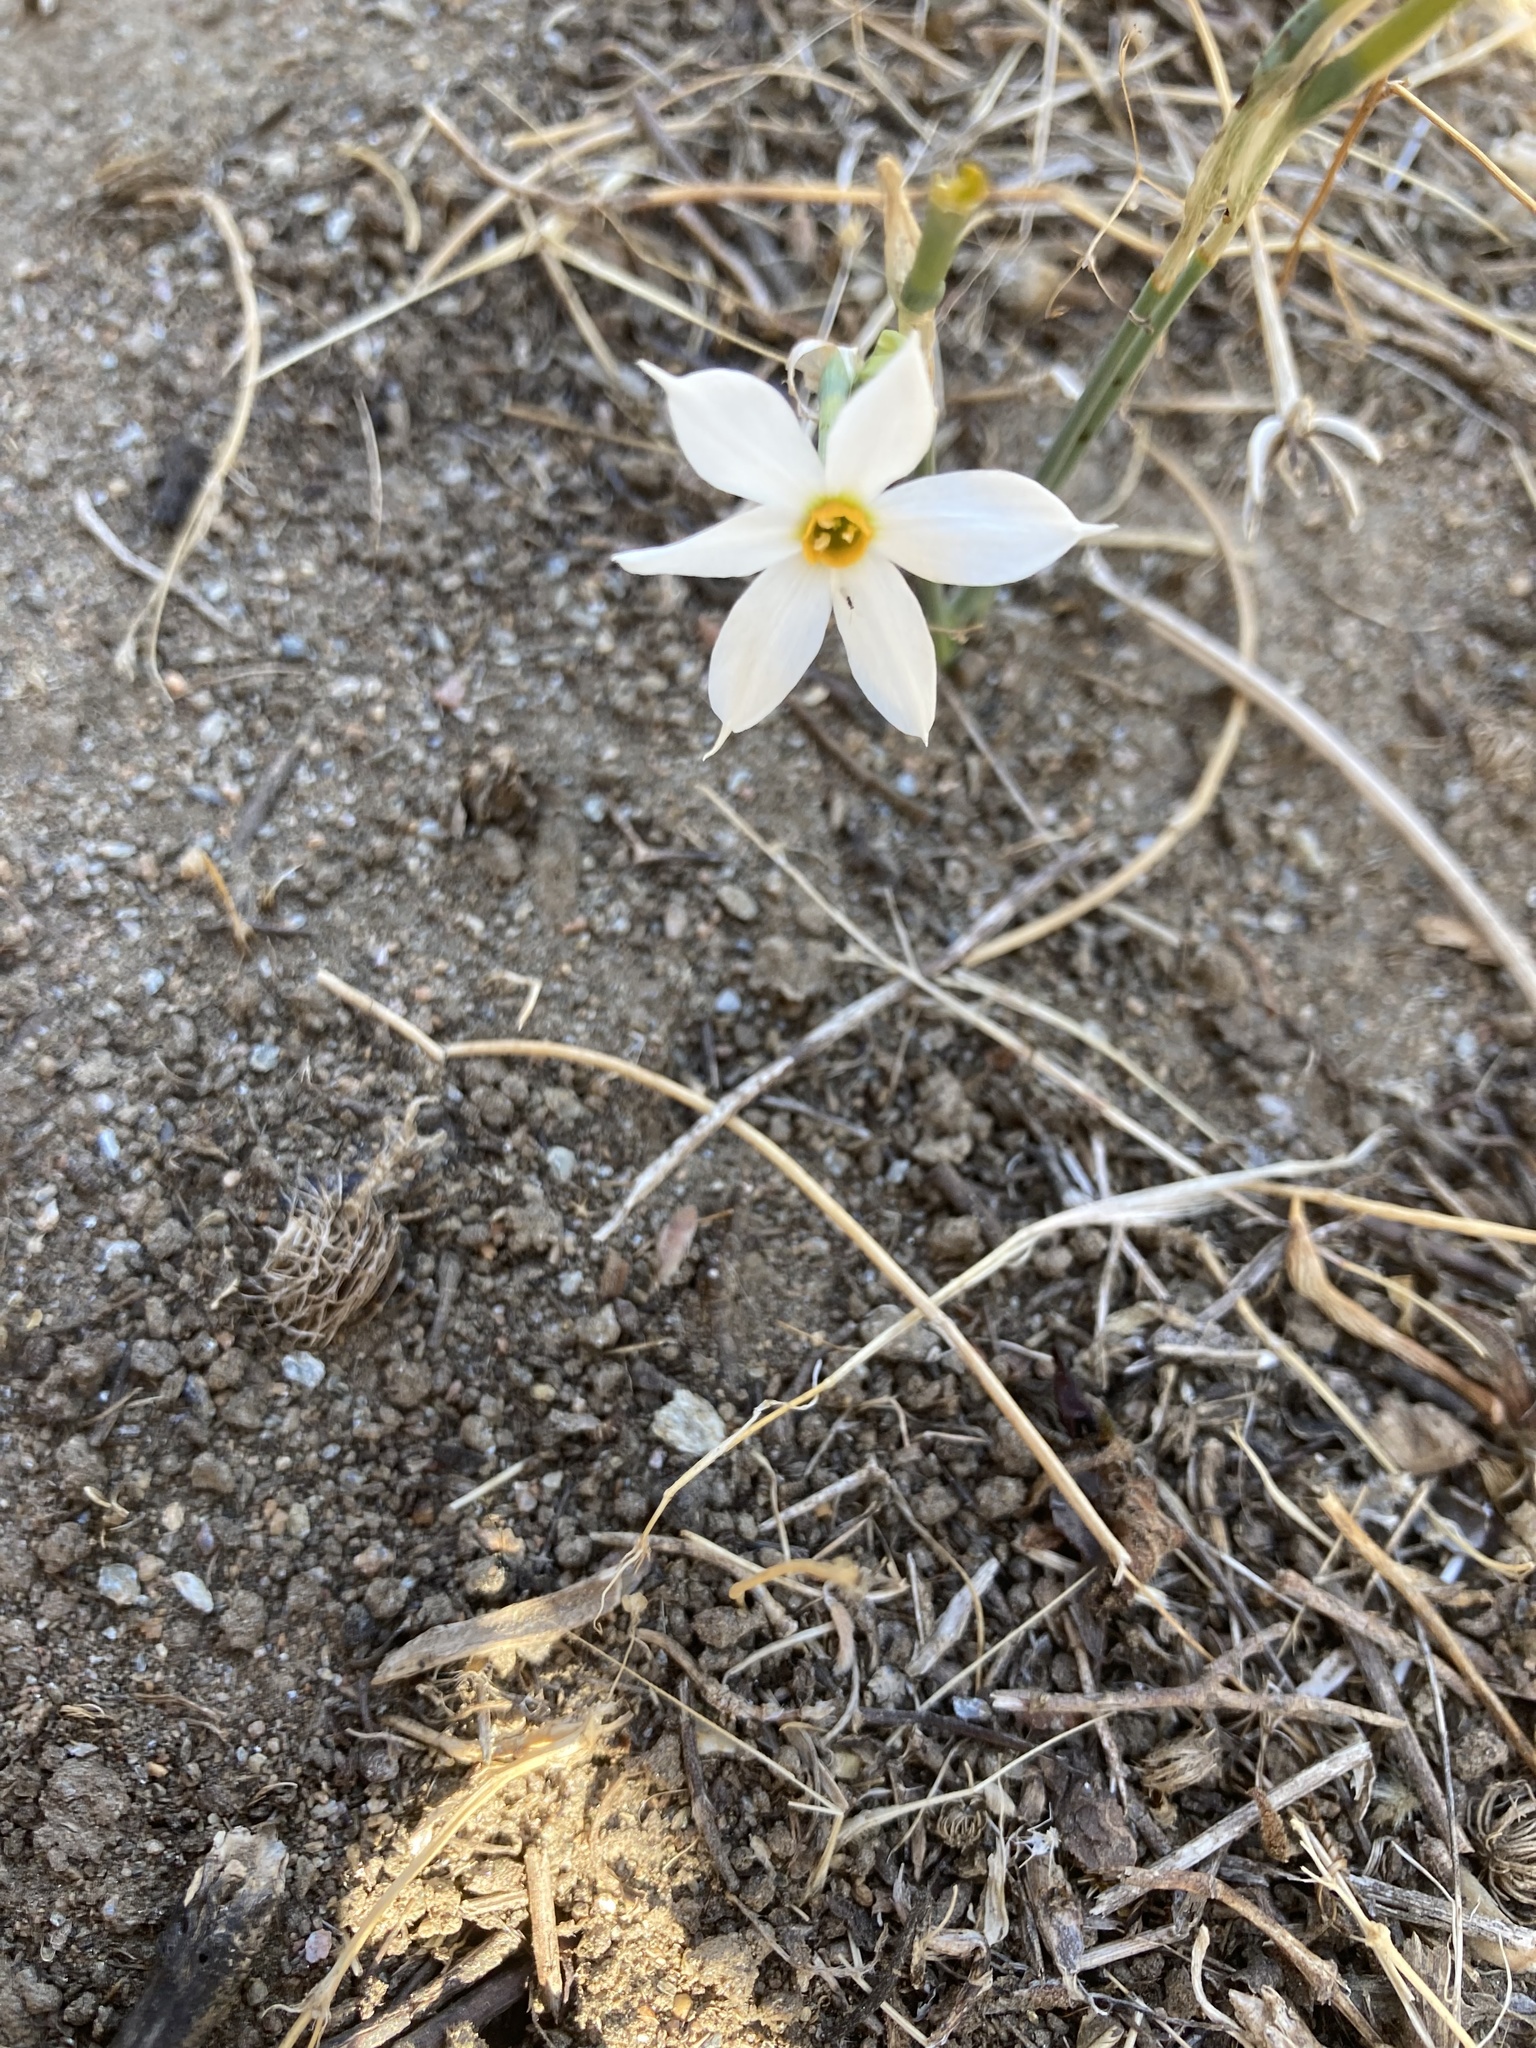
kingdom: Plantae
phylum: Tracheophyta
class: Liliopsida
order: Asparagales
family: Amaryllidaceae
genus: Narcissus
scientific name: Narcissus deficiens
